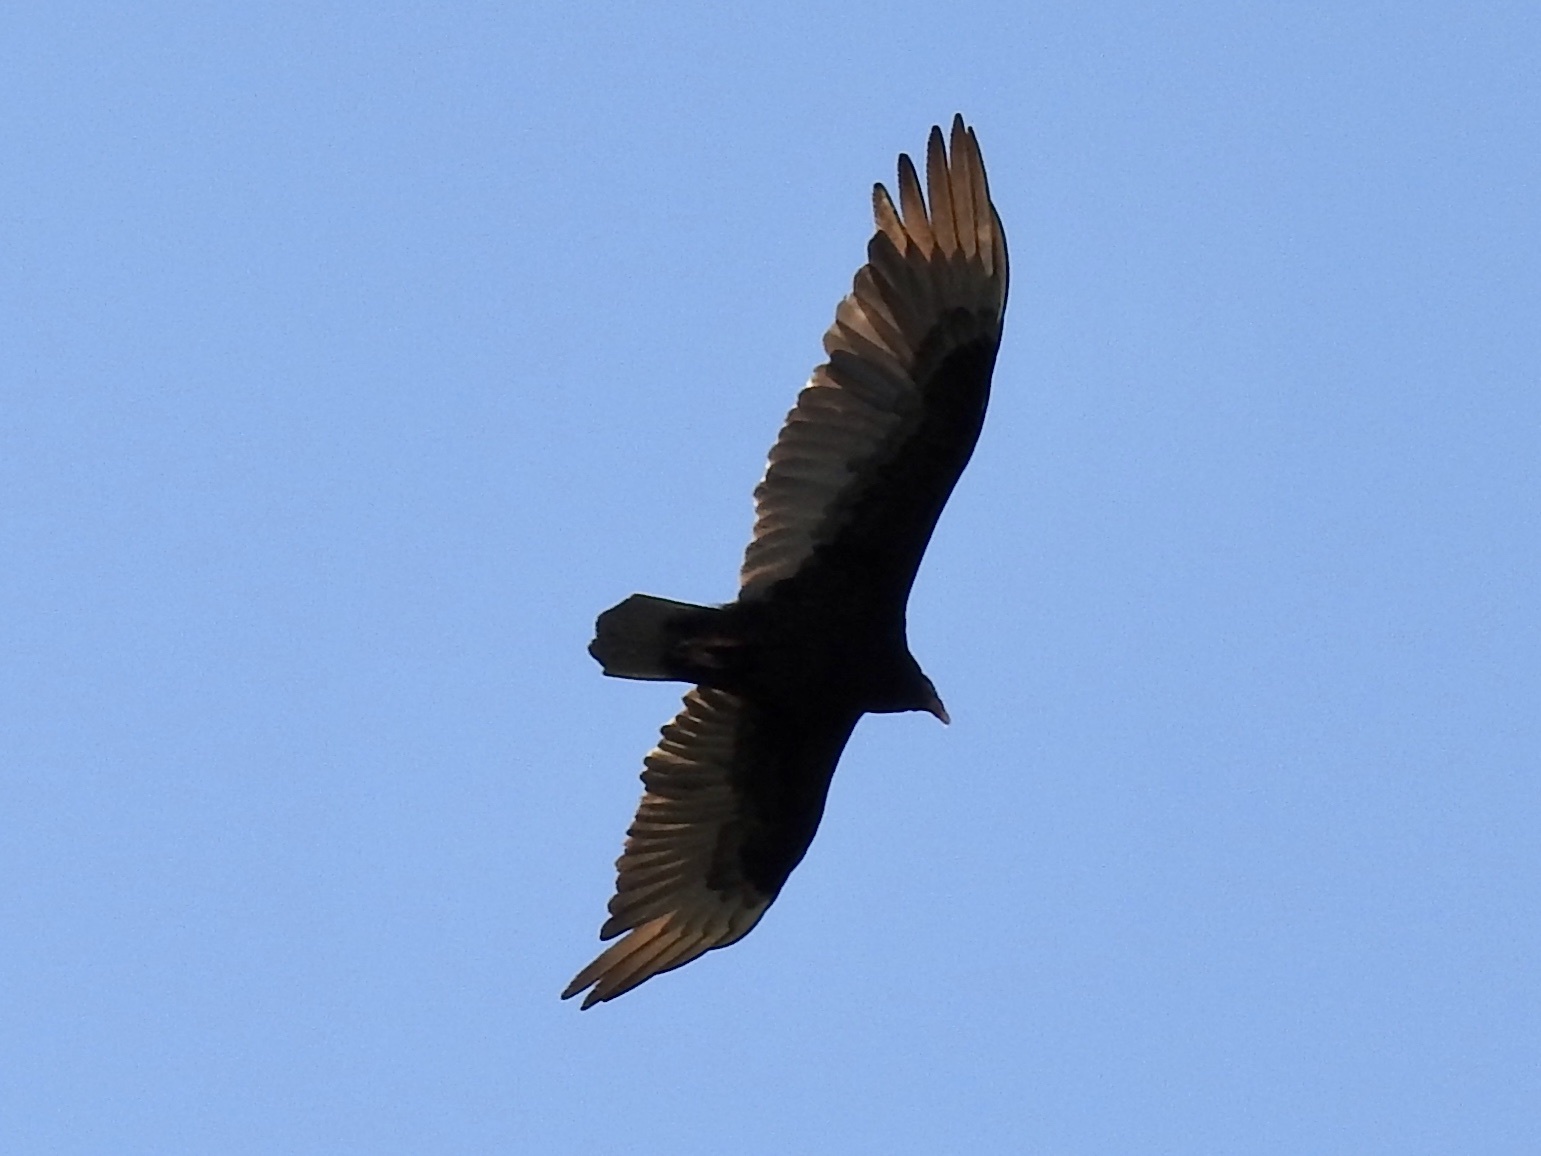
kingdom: Animalia
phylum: Chordata
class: Aves
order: Accipitriformes
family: Cathartidae
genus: Cathartes
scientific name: Cathartes aura
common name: Turkey vulture
